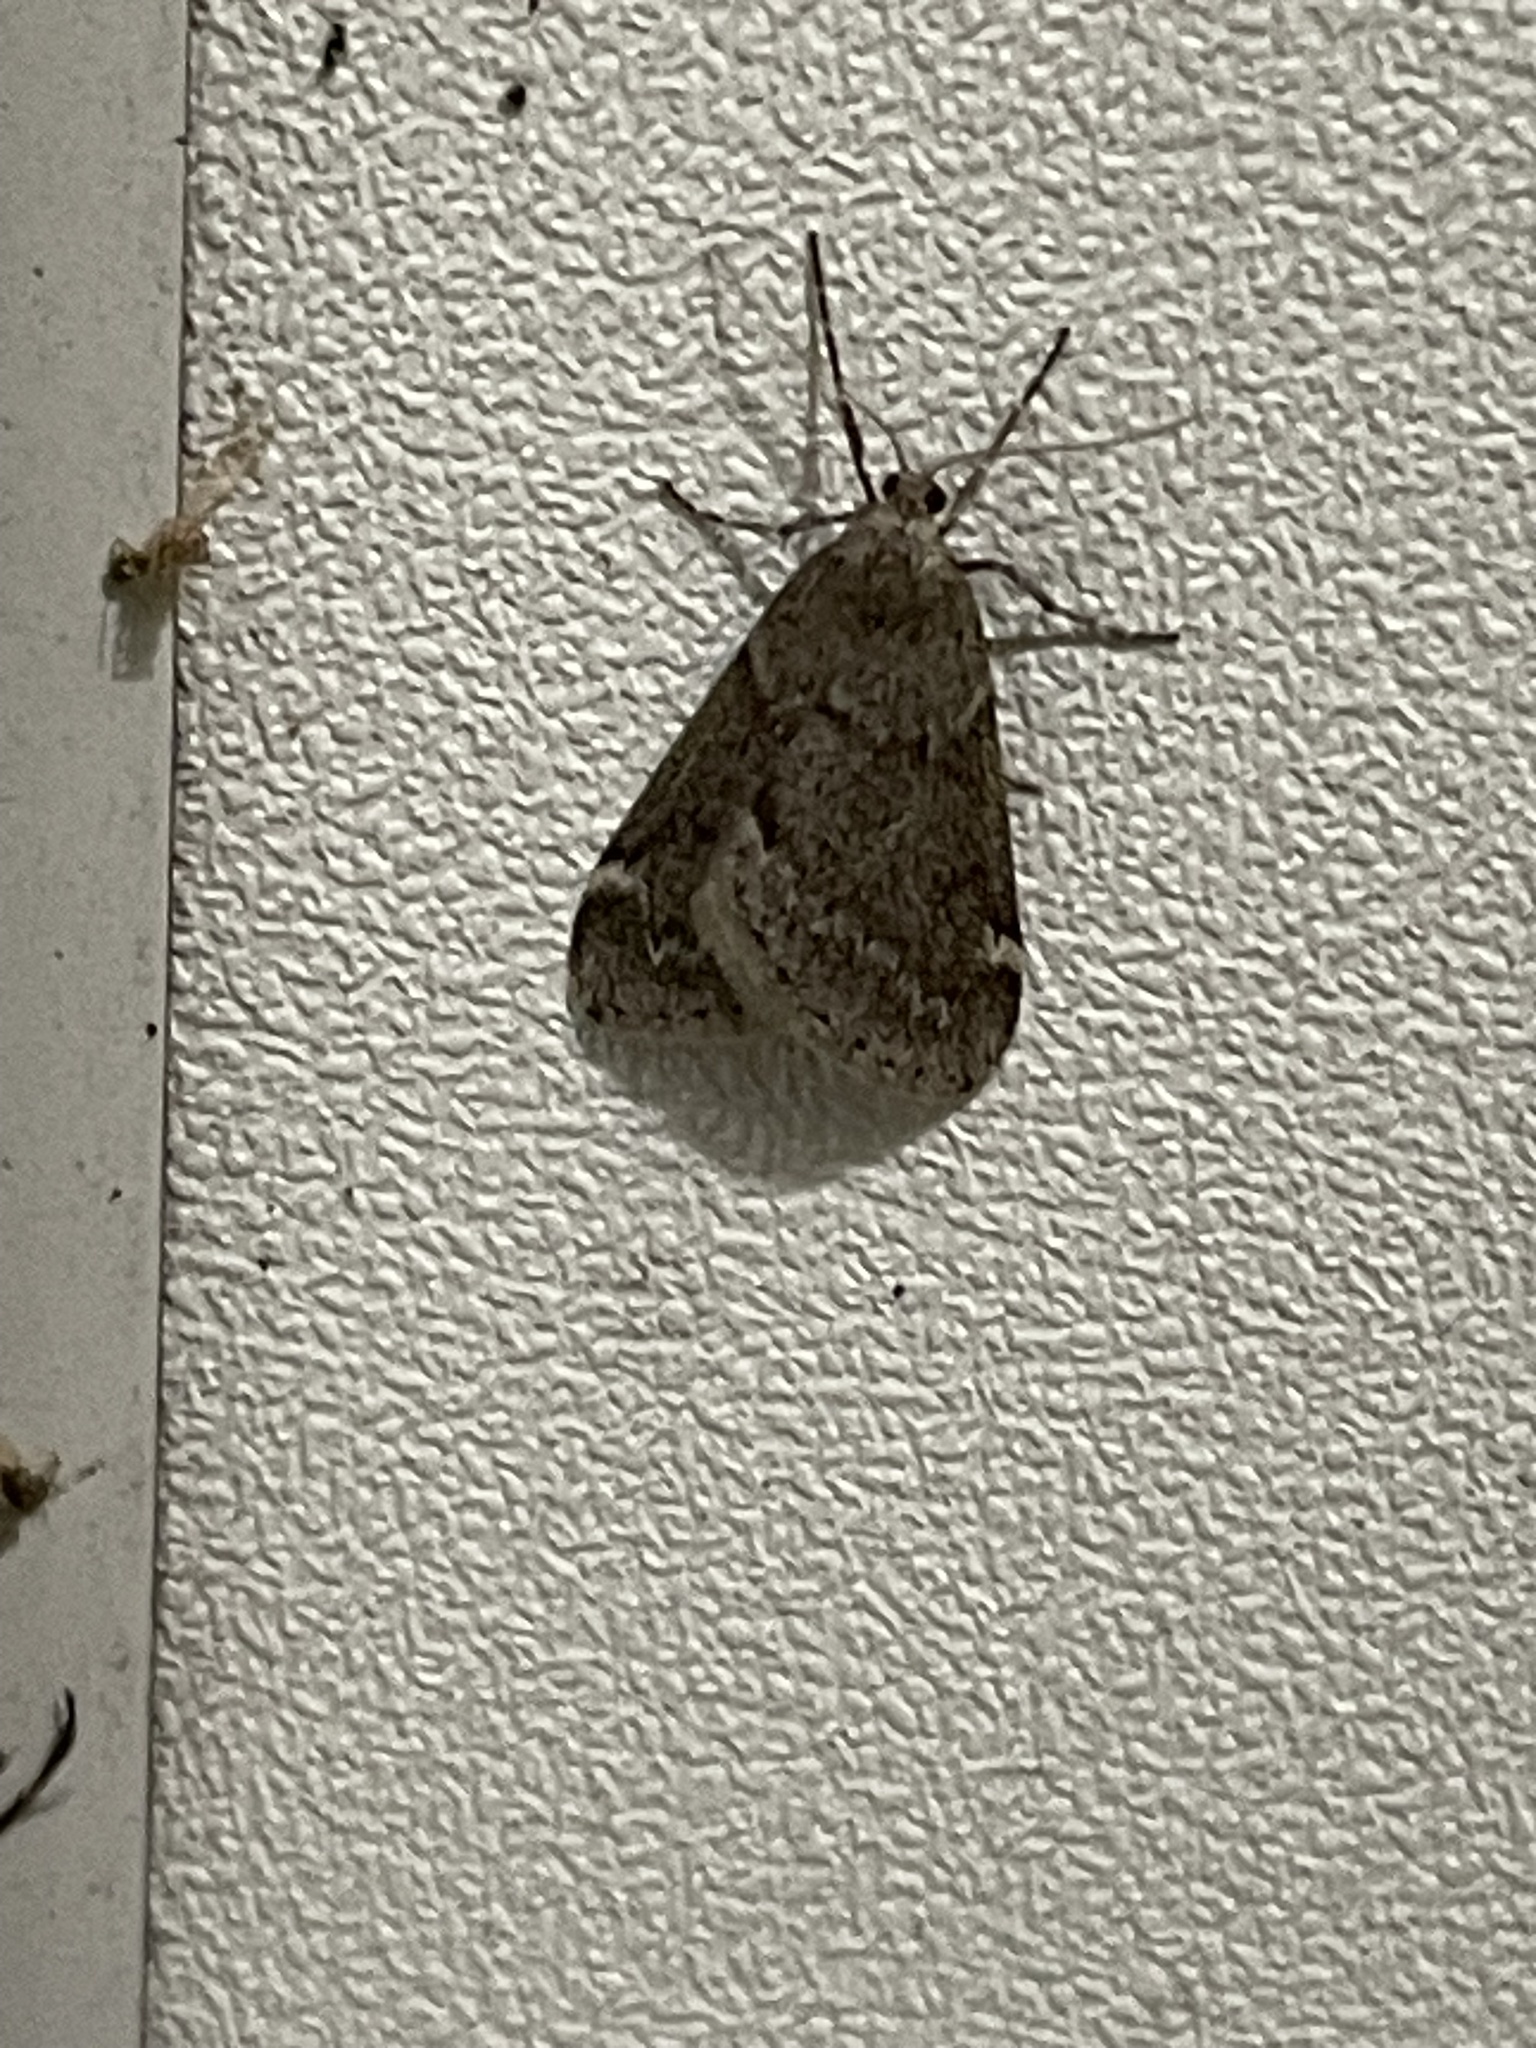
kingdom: Animalia
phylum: Arthropoda
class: Insecta
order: Lepidoptera
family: Geometridae
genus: Alsophila
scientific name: Alsophila pometaria
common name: Fall cankerworm
